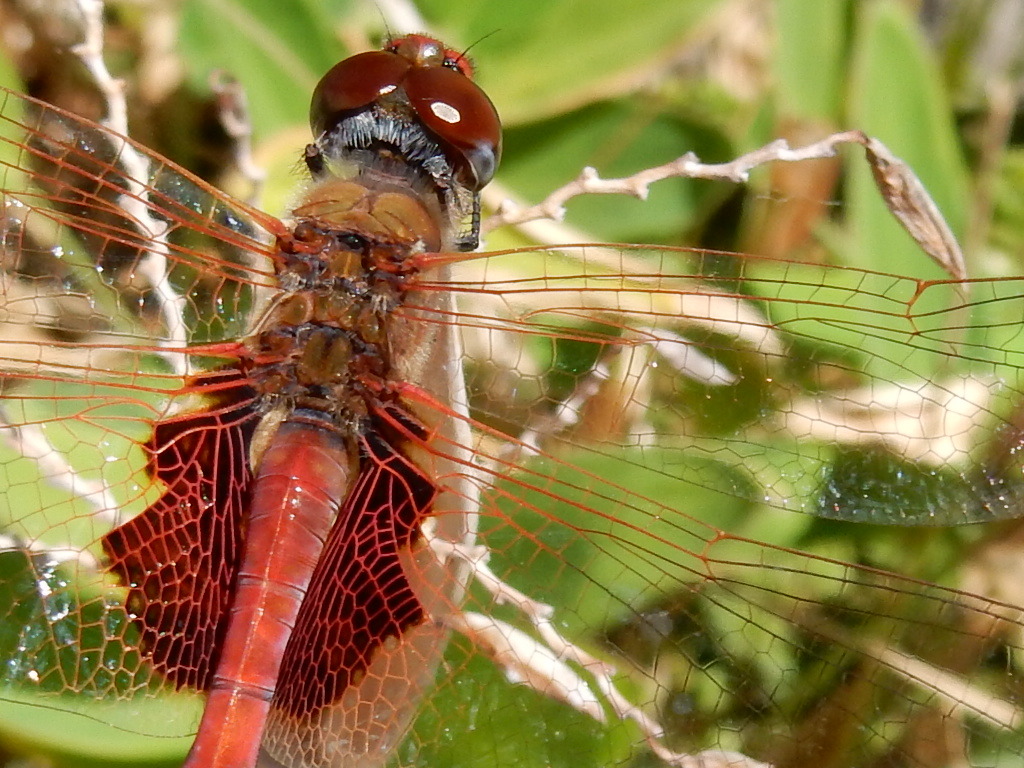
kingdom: Animalia
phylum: Arthropoda
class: Insecta
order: Odonata
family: Libellulidae
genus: Tramea
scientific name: Tramea loewii
